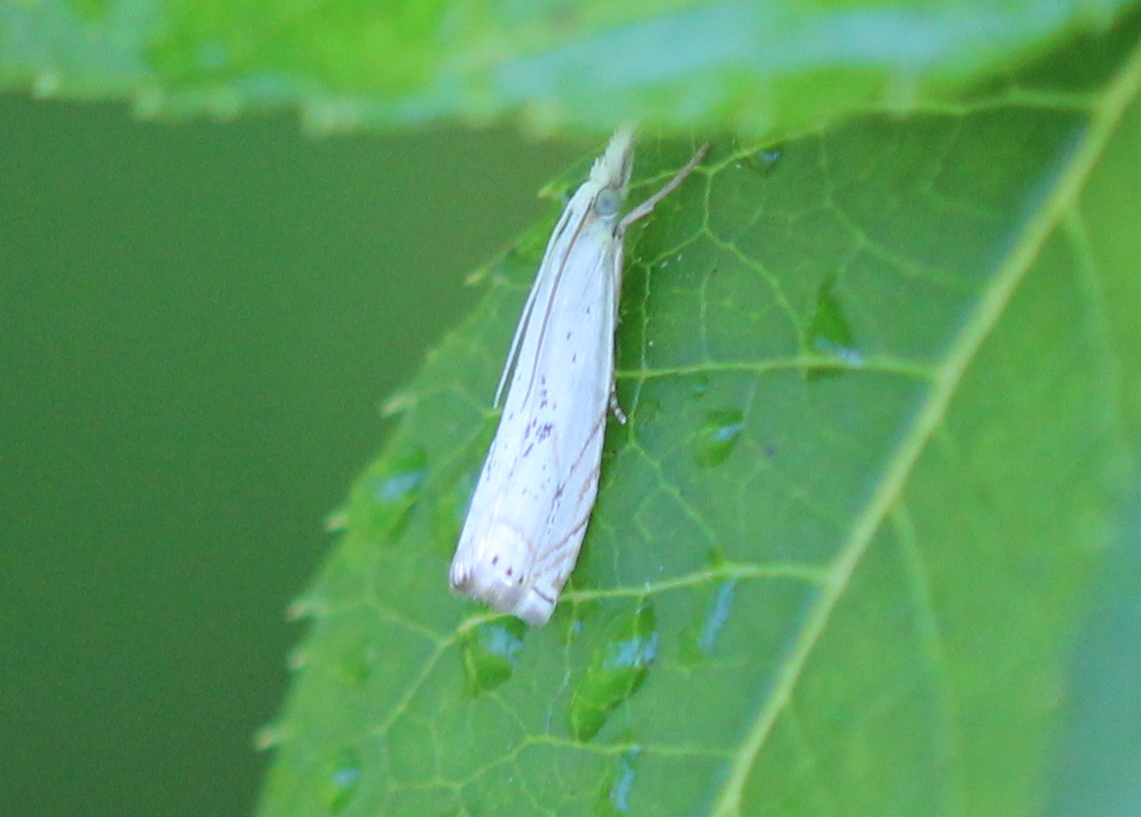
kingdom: Animalia
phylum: Arthropoda
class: Insecta
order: Lepidoptera
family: Crambidae
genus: Crambus
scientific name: Crambus albellus
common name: Small white grass-veneer
